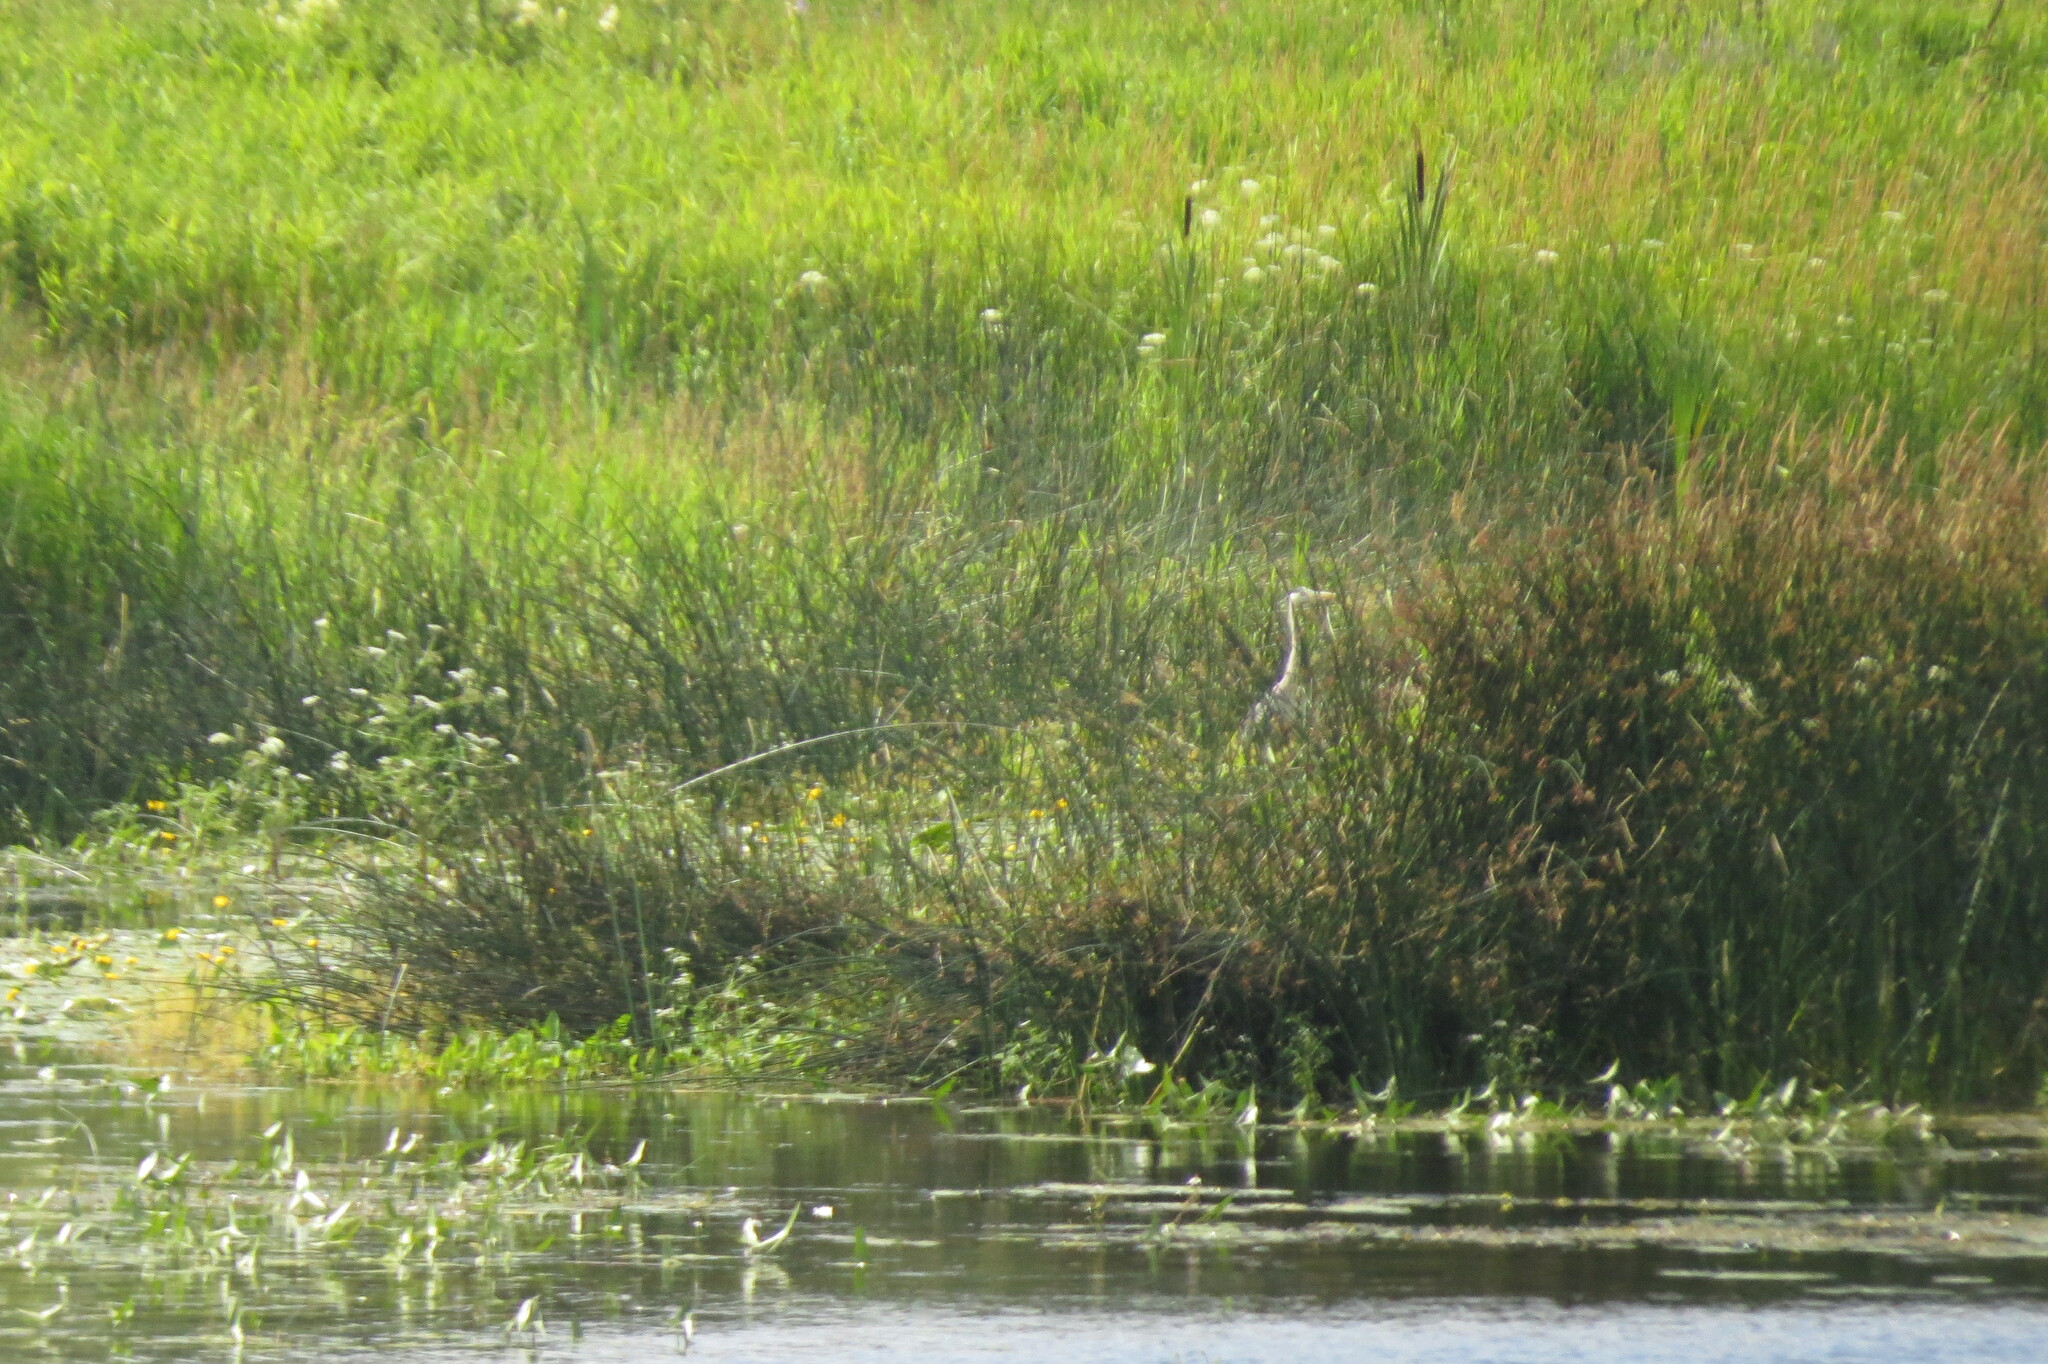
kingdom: Animalia
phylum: Chordata
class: Aves
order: Pelecaniformes
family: Ardeidae
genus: Ardea
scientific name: Ardea cinerea
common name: Grey heron
